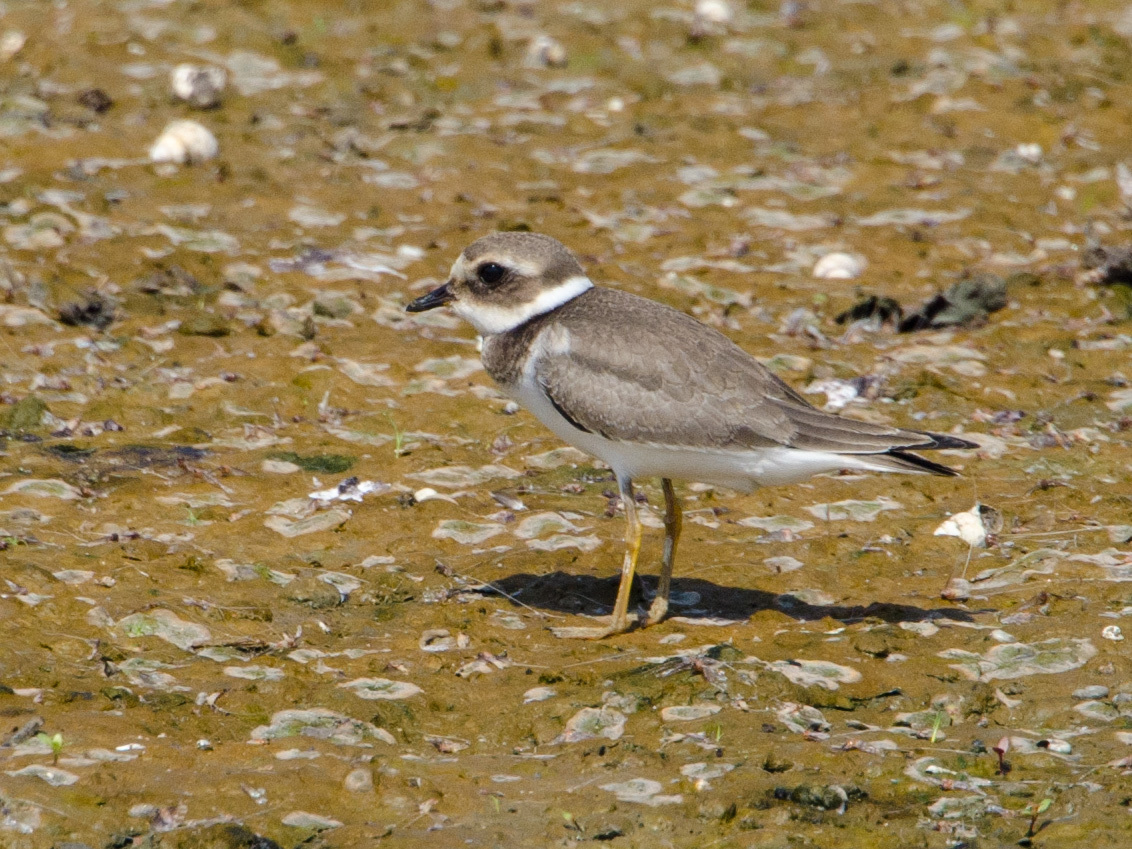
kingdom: Animalia
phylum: Chordata
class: Aves
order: Charadriiformes
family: Charadriidae
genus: Charadrius
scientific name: Charadrius hiaticula
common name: Common ringed plover
